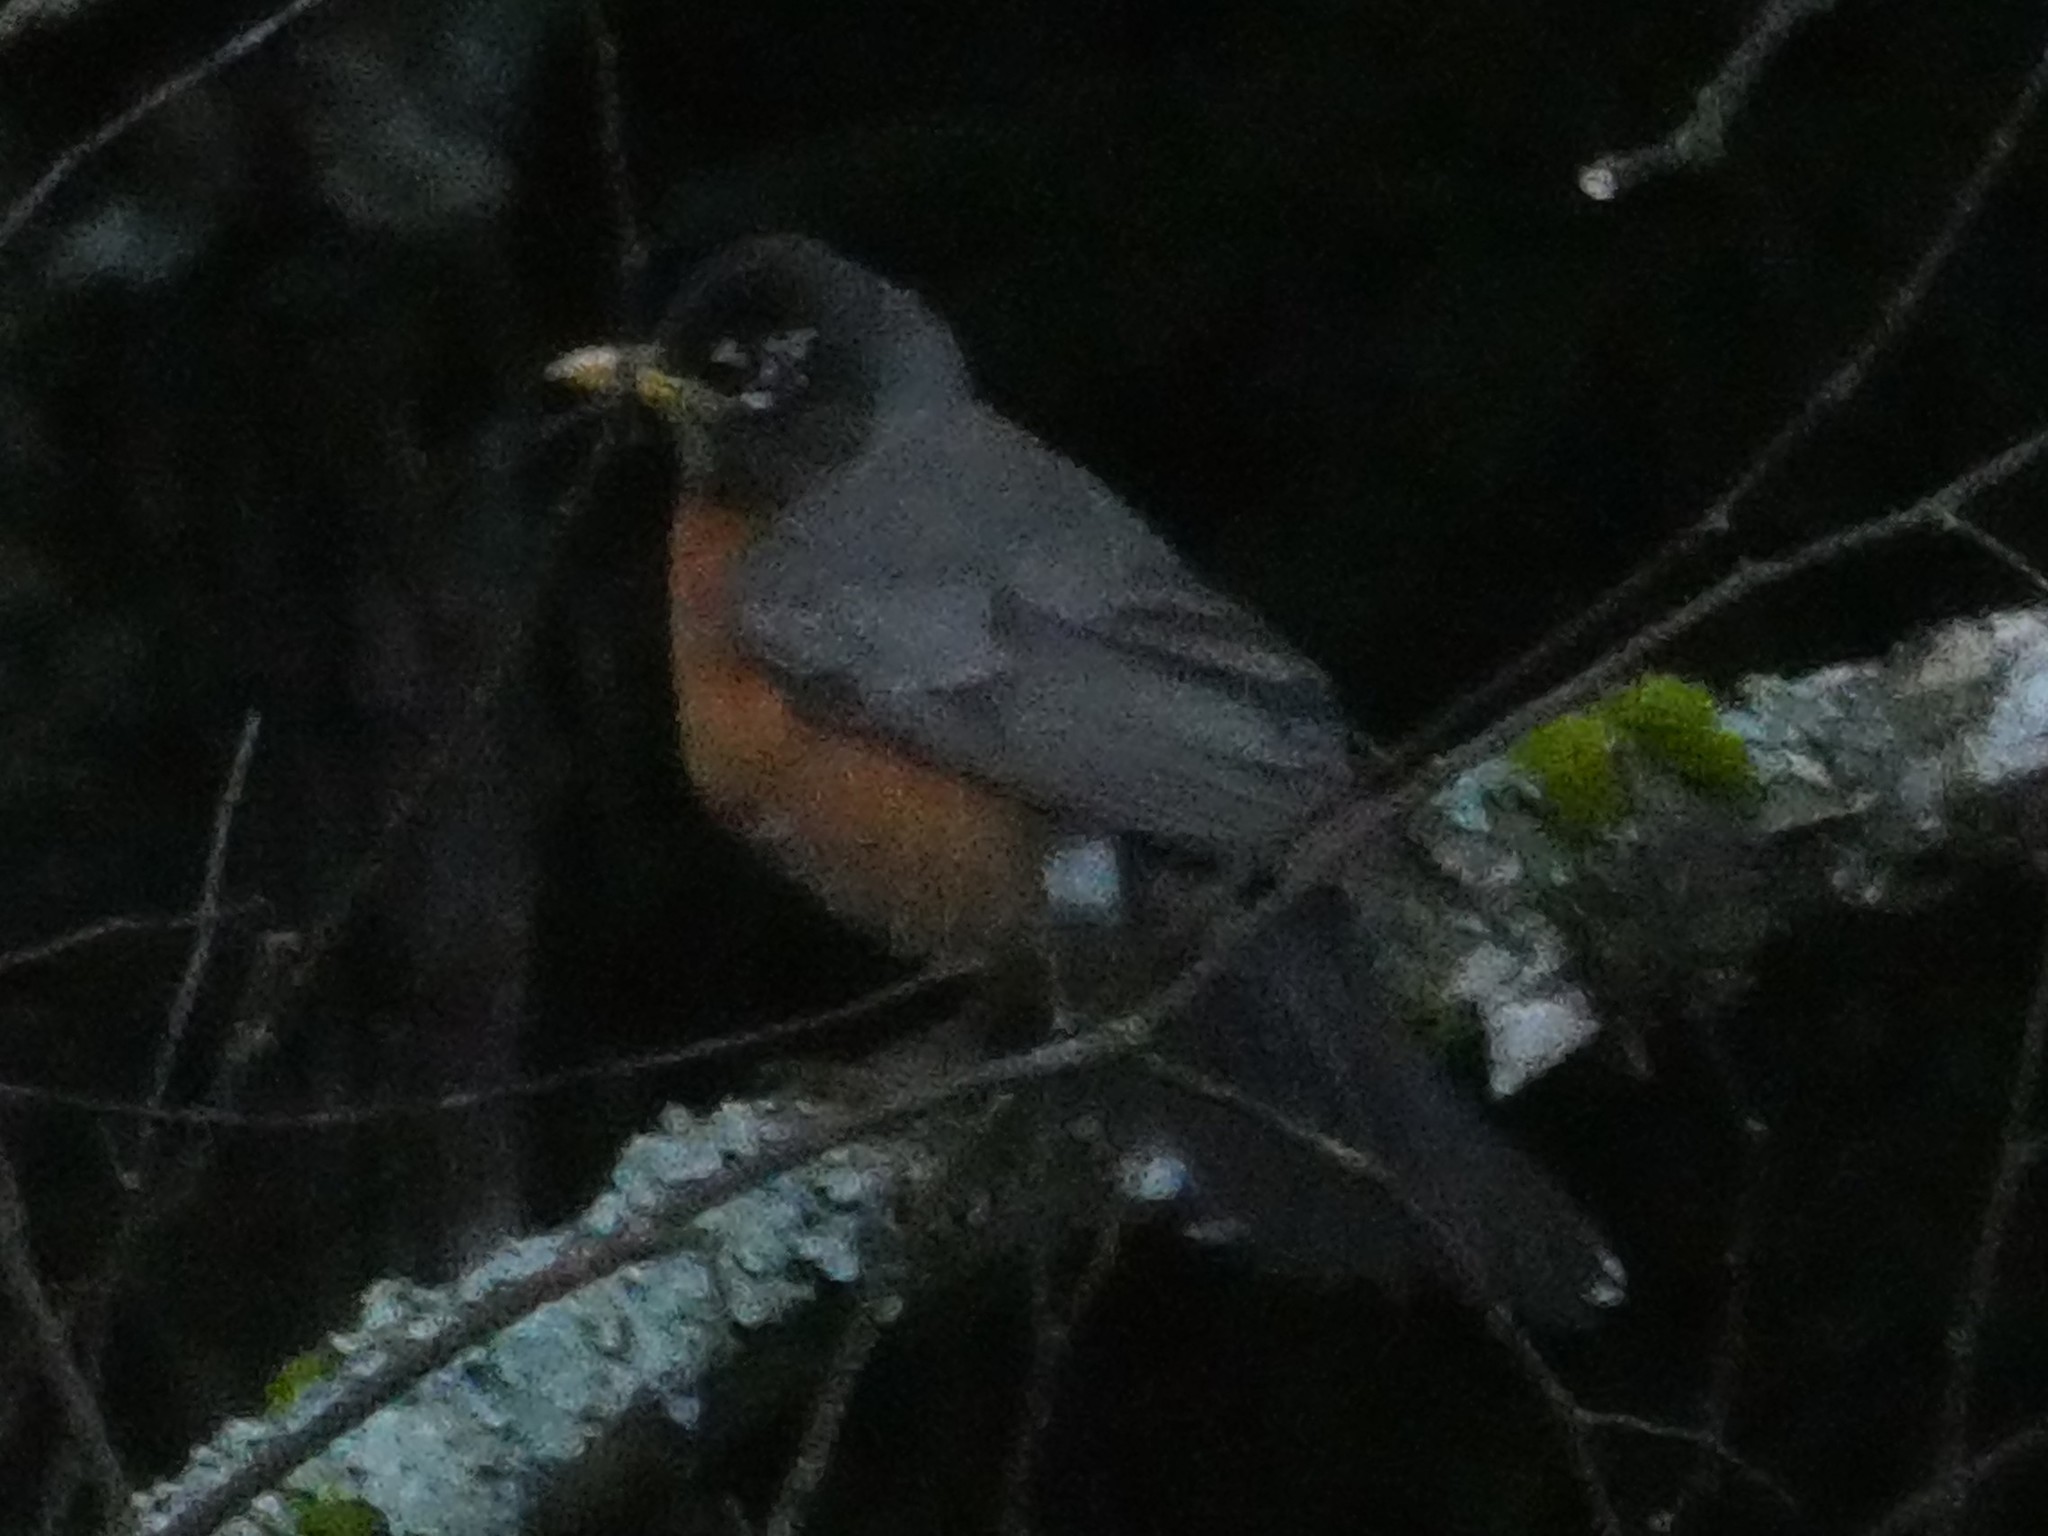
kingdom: Animalia
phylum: Chordata
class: Aves
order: Passeriformes
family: Turdidae
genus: Turdus
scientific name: Turdus migratorius
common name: American robin
